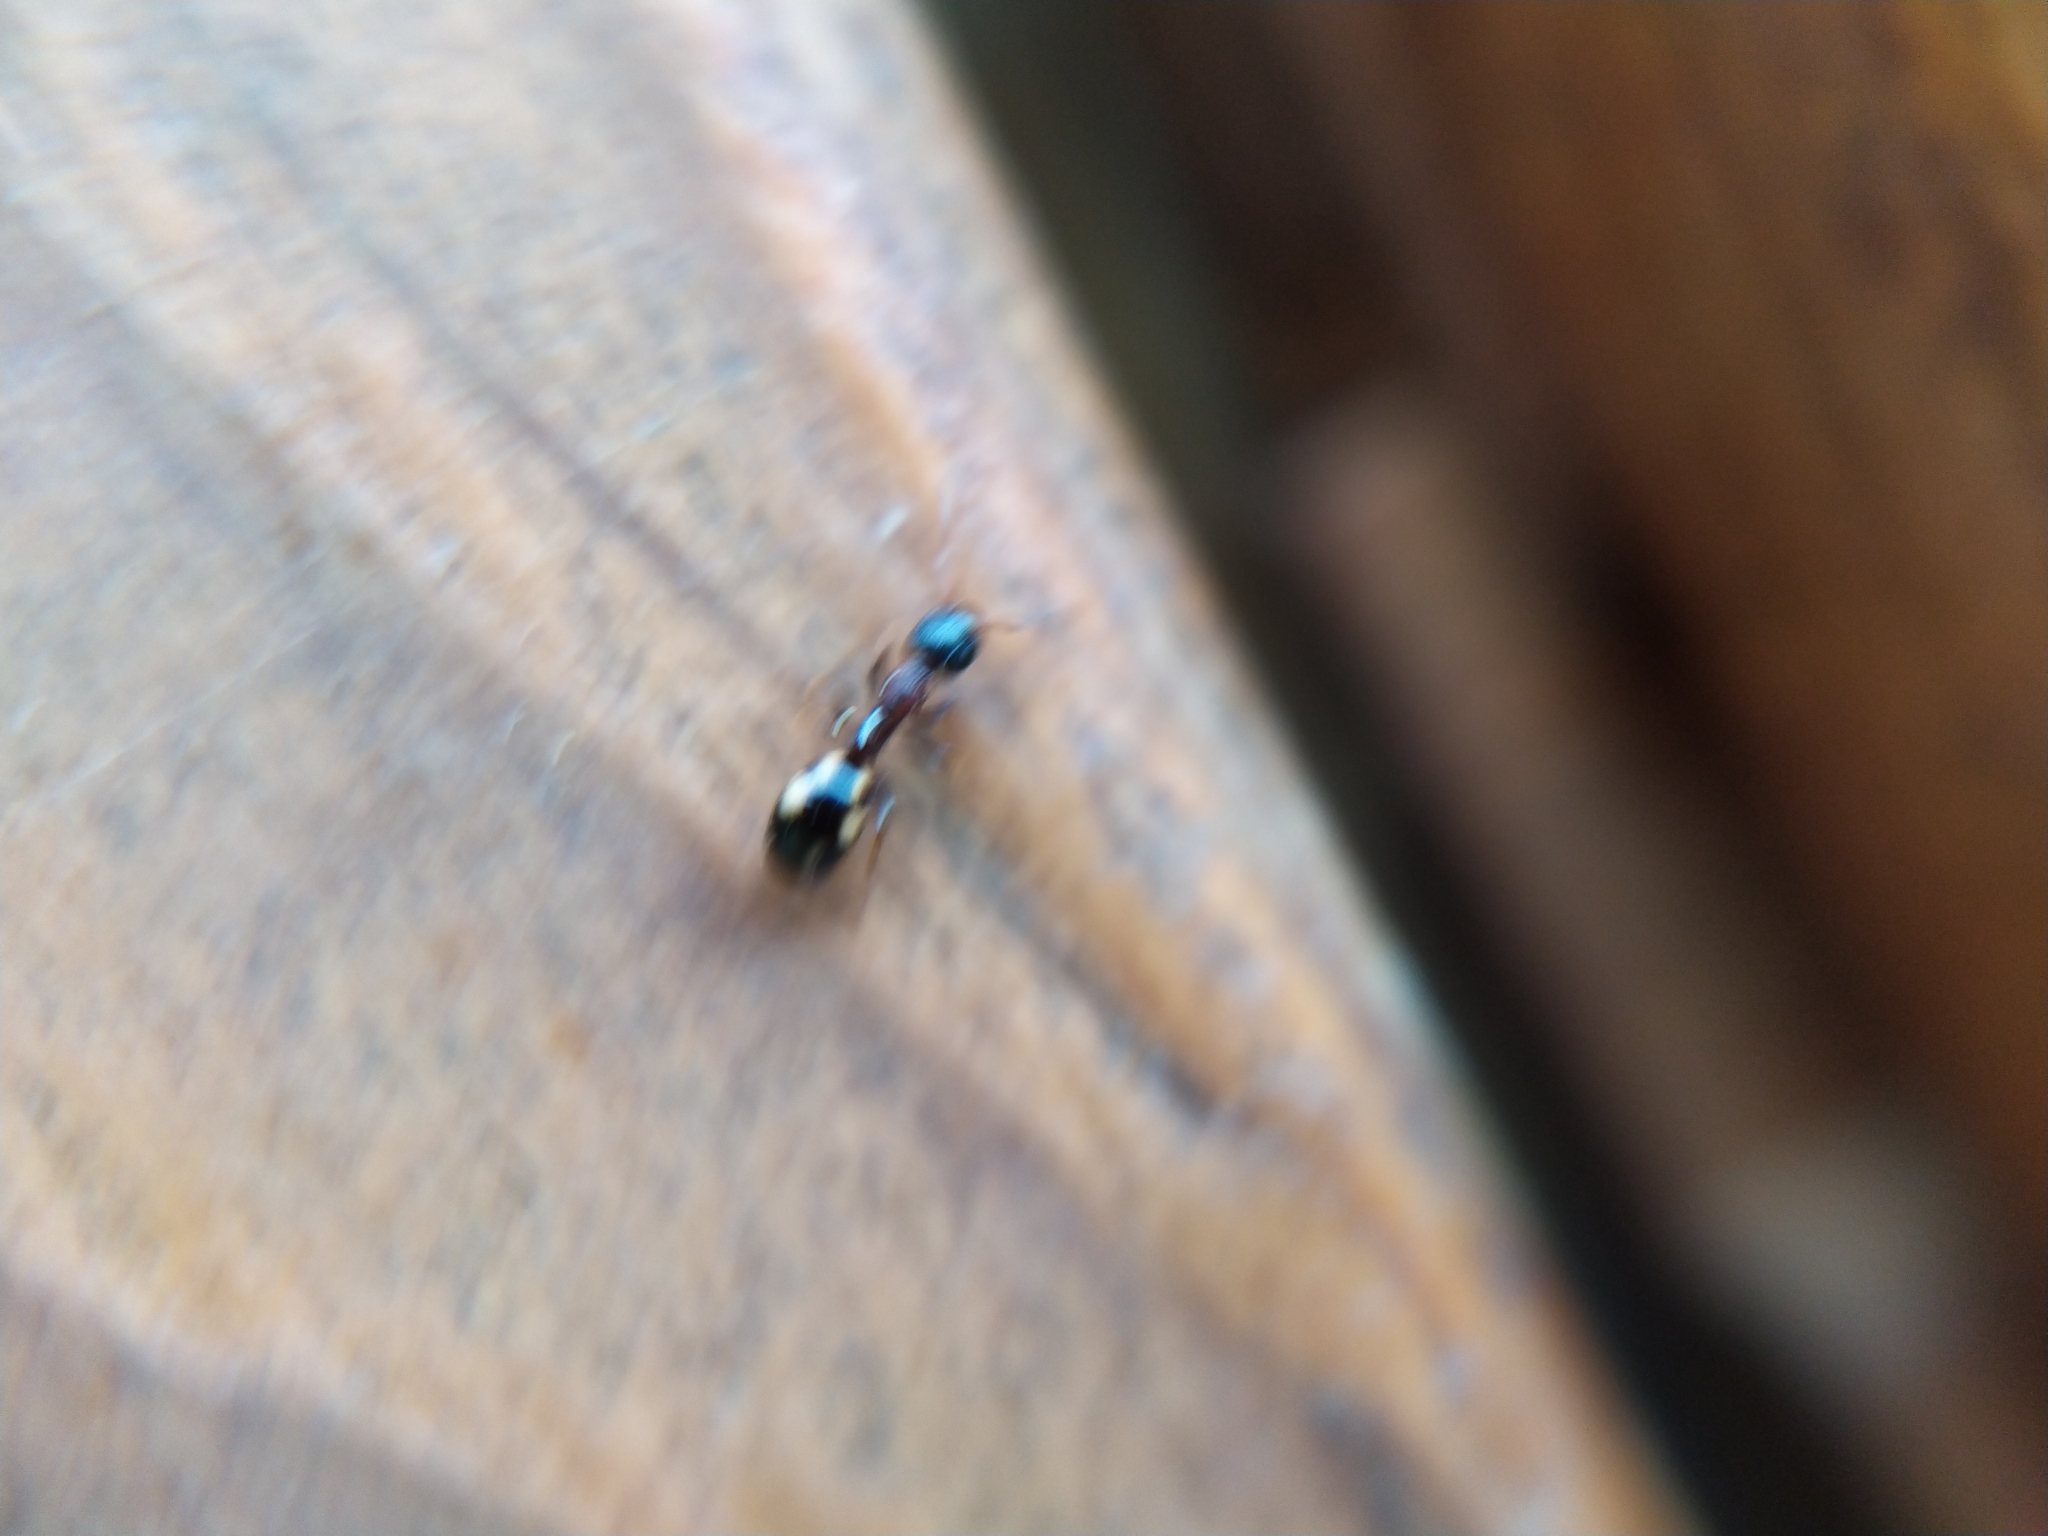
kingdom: Animalia
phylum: Arthropoda
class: Insecta
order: Hymenoptera
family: Formicidae
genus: Dolichoderus
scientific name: Dolichoderus quadripunctatus
